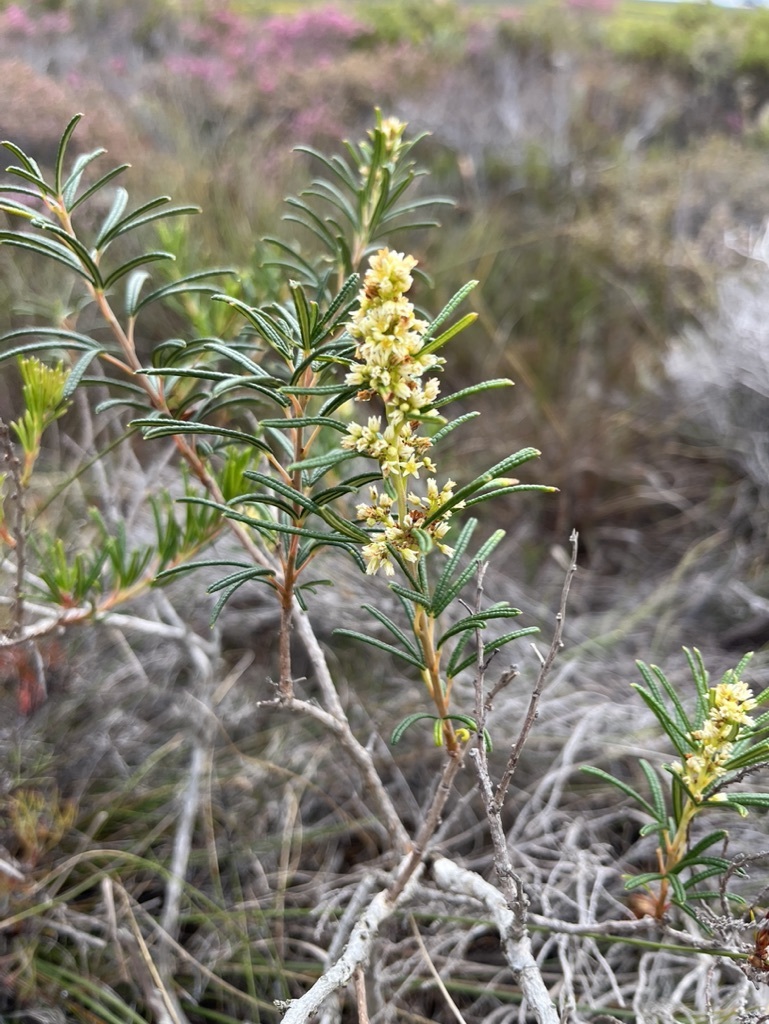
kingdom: Plantae
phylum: Tracheophyta
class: Magnoliopsida
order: Sapindales
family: Anacardiaceae
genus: Searsia
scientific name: Searsia rosmarinifolia
